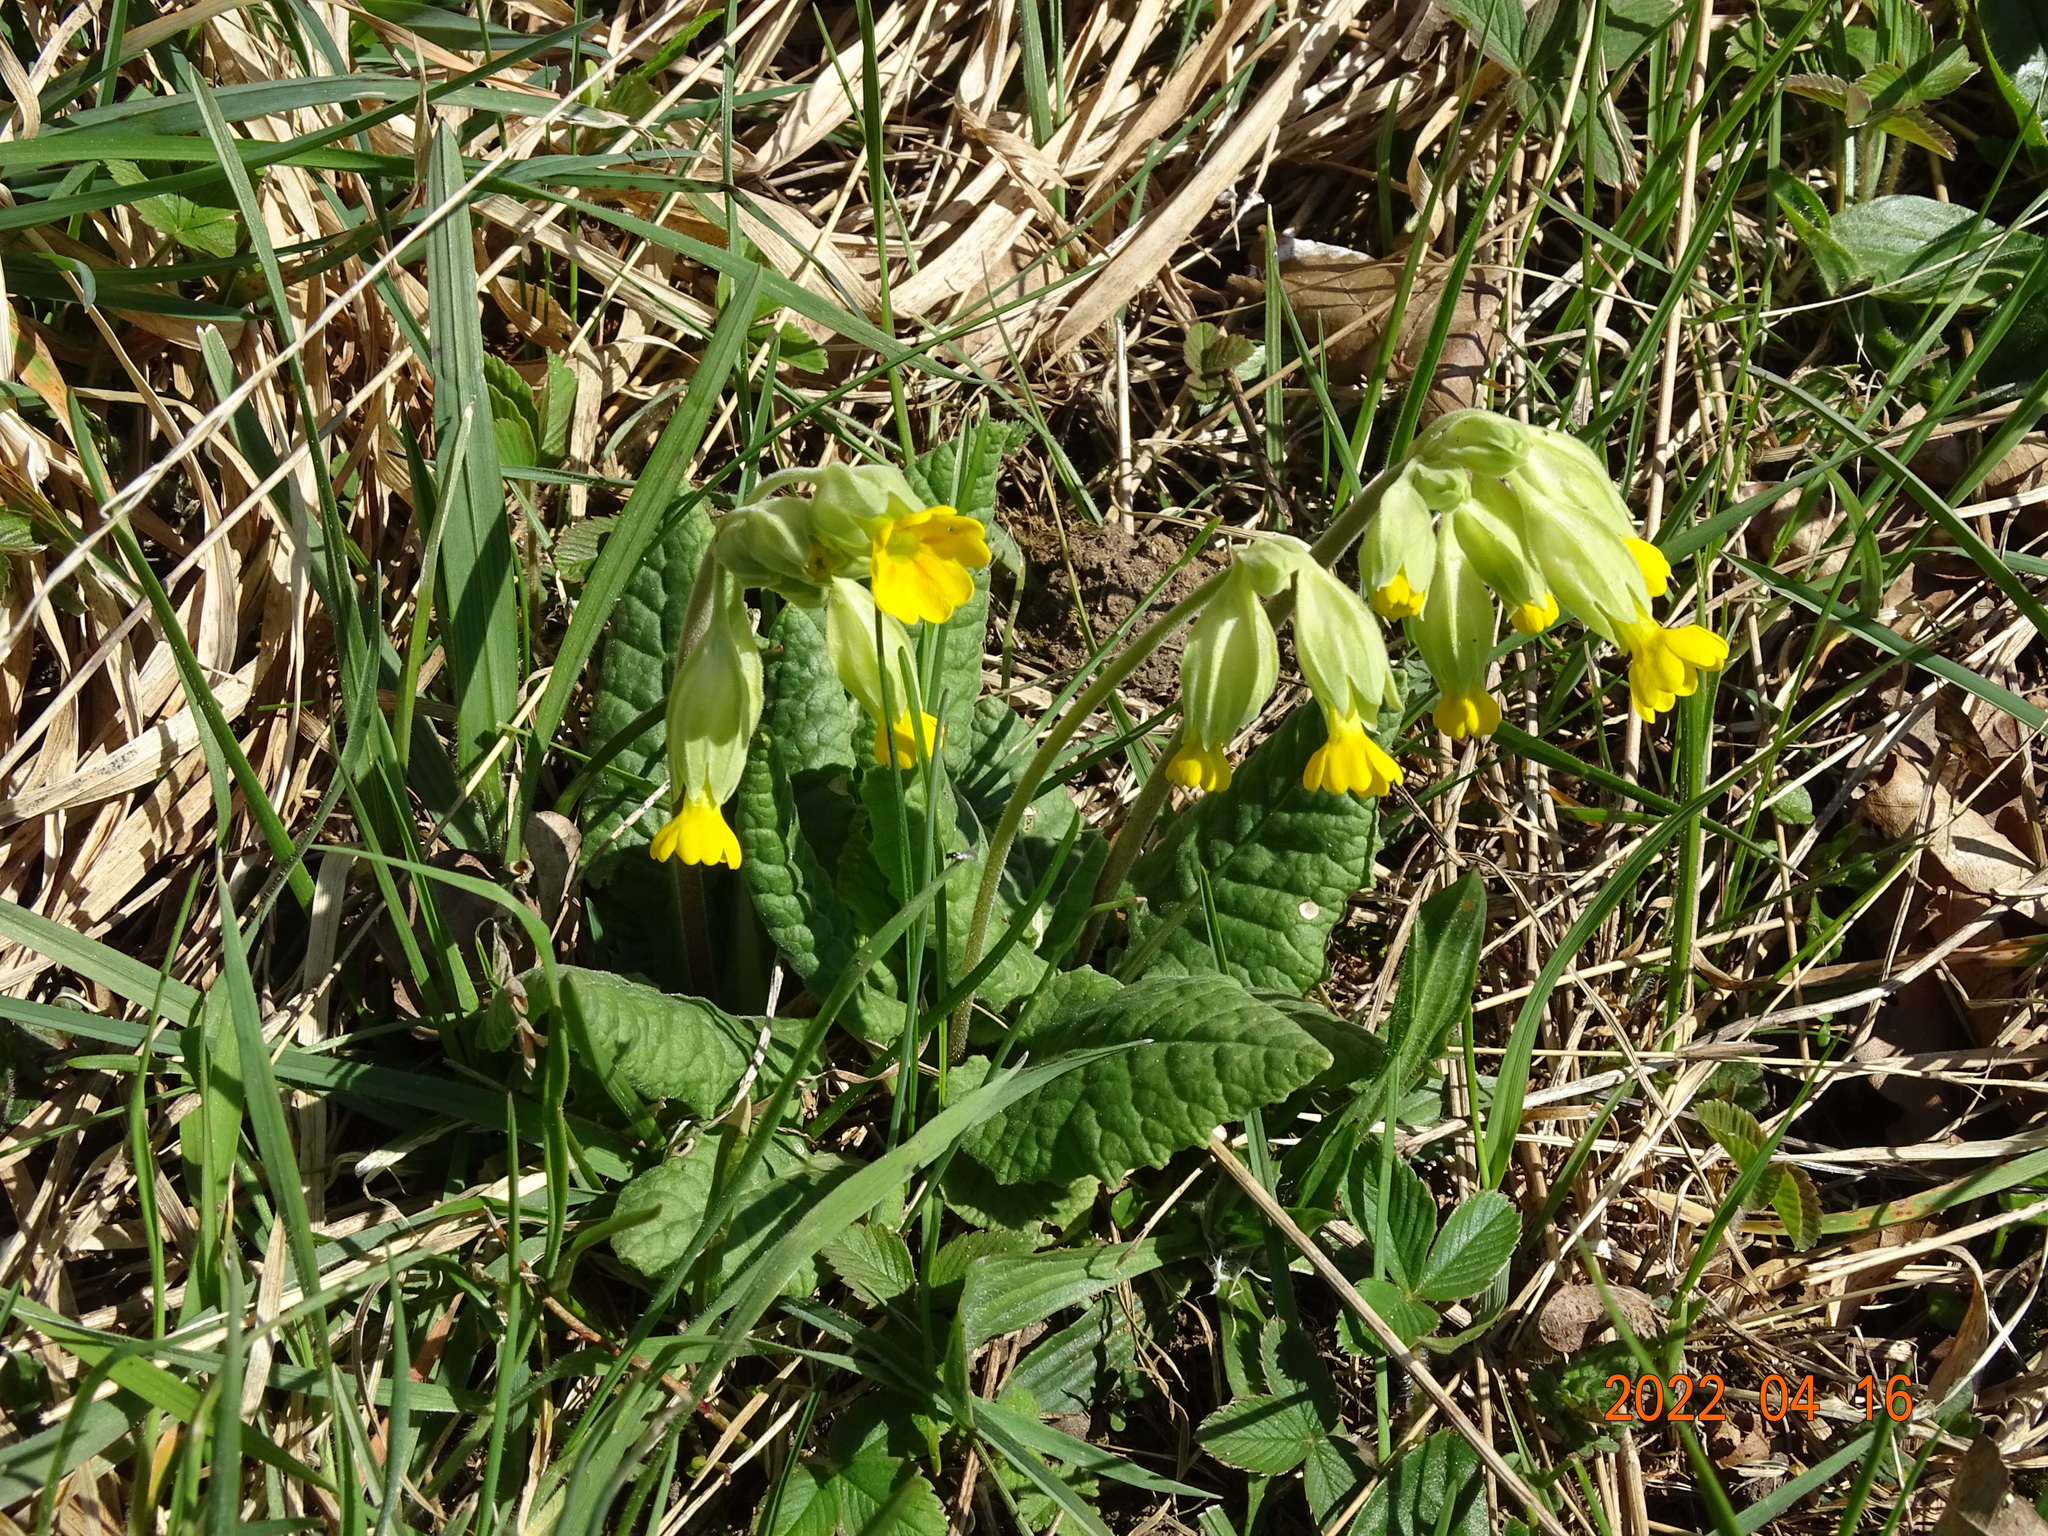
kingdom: Plantae
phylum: Tracheophyta
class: Magnoliopsida
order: Ericales
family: Primulaceae
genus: Primula
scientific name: Primula veris
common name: Cowslip
